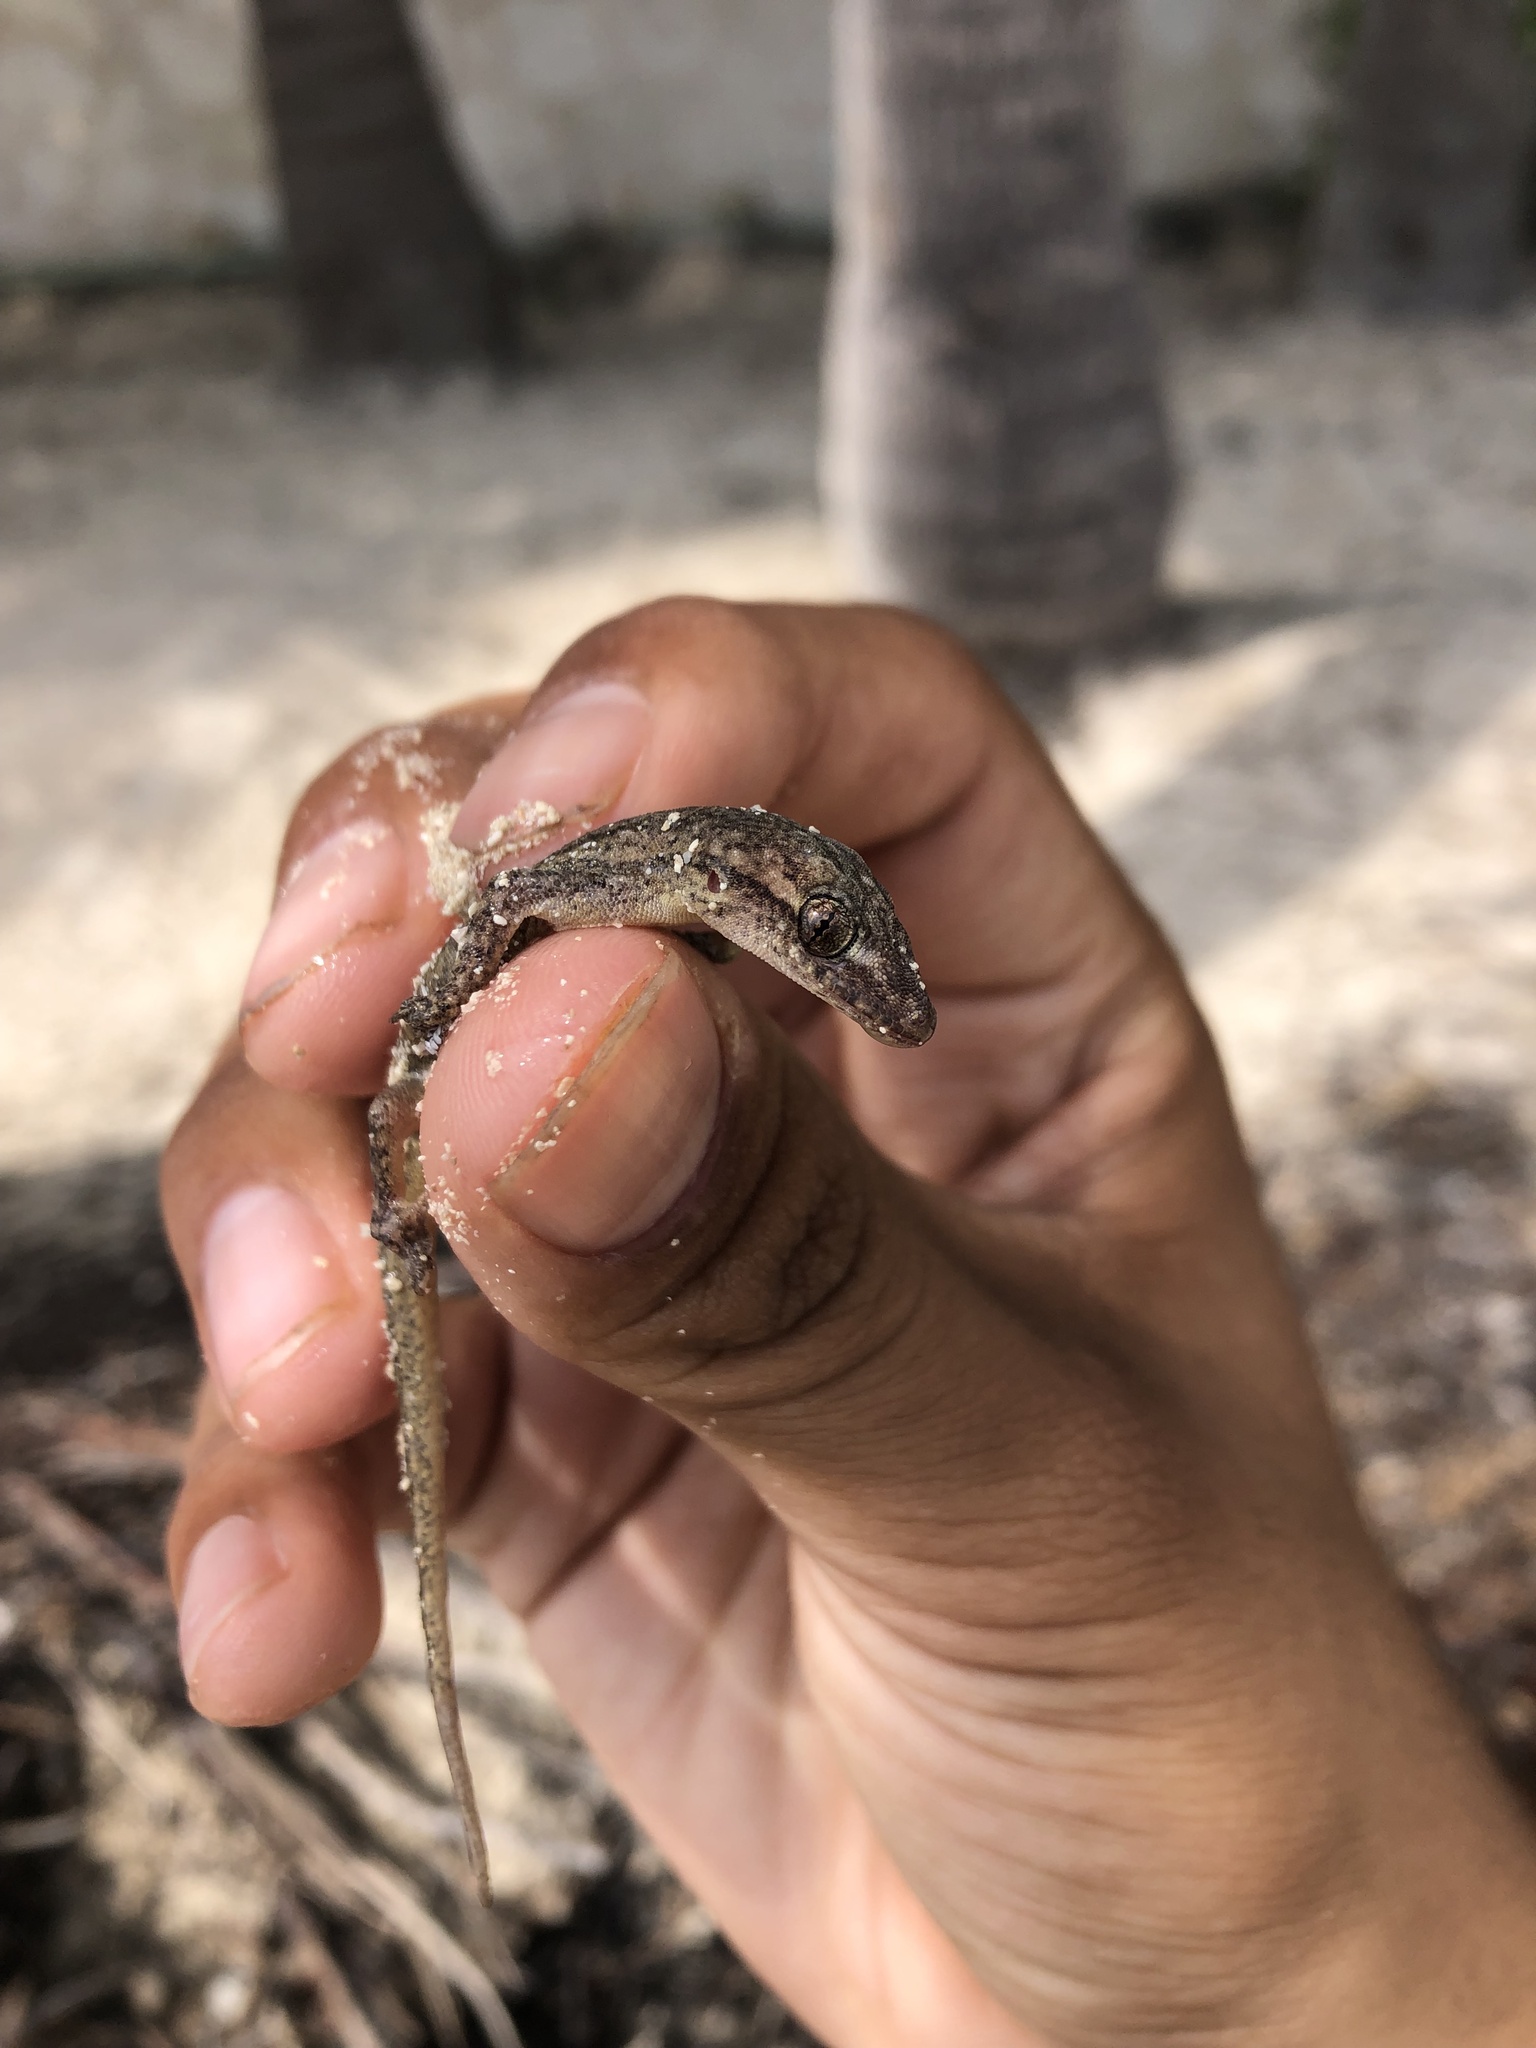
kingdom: Animalia
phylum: Chordata
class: Squamata
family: Gekkonidae
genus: Hemidactylus
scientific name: Hemidactylus frenatus
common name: Common house gecko
